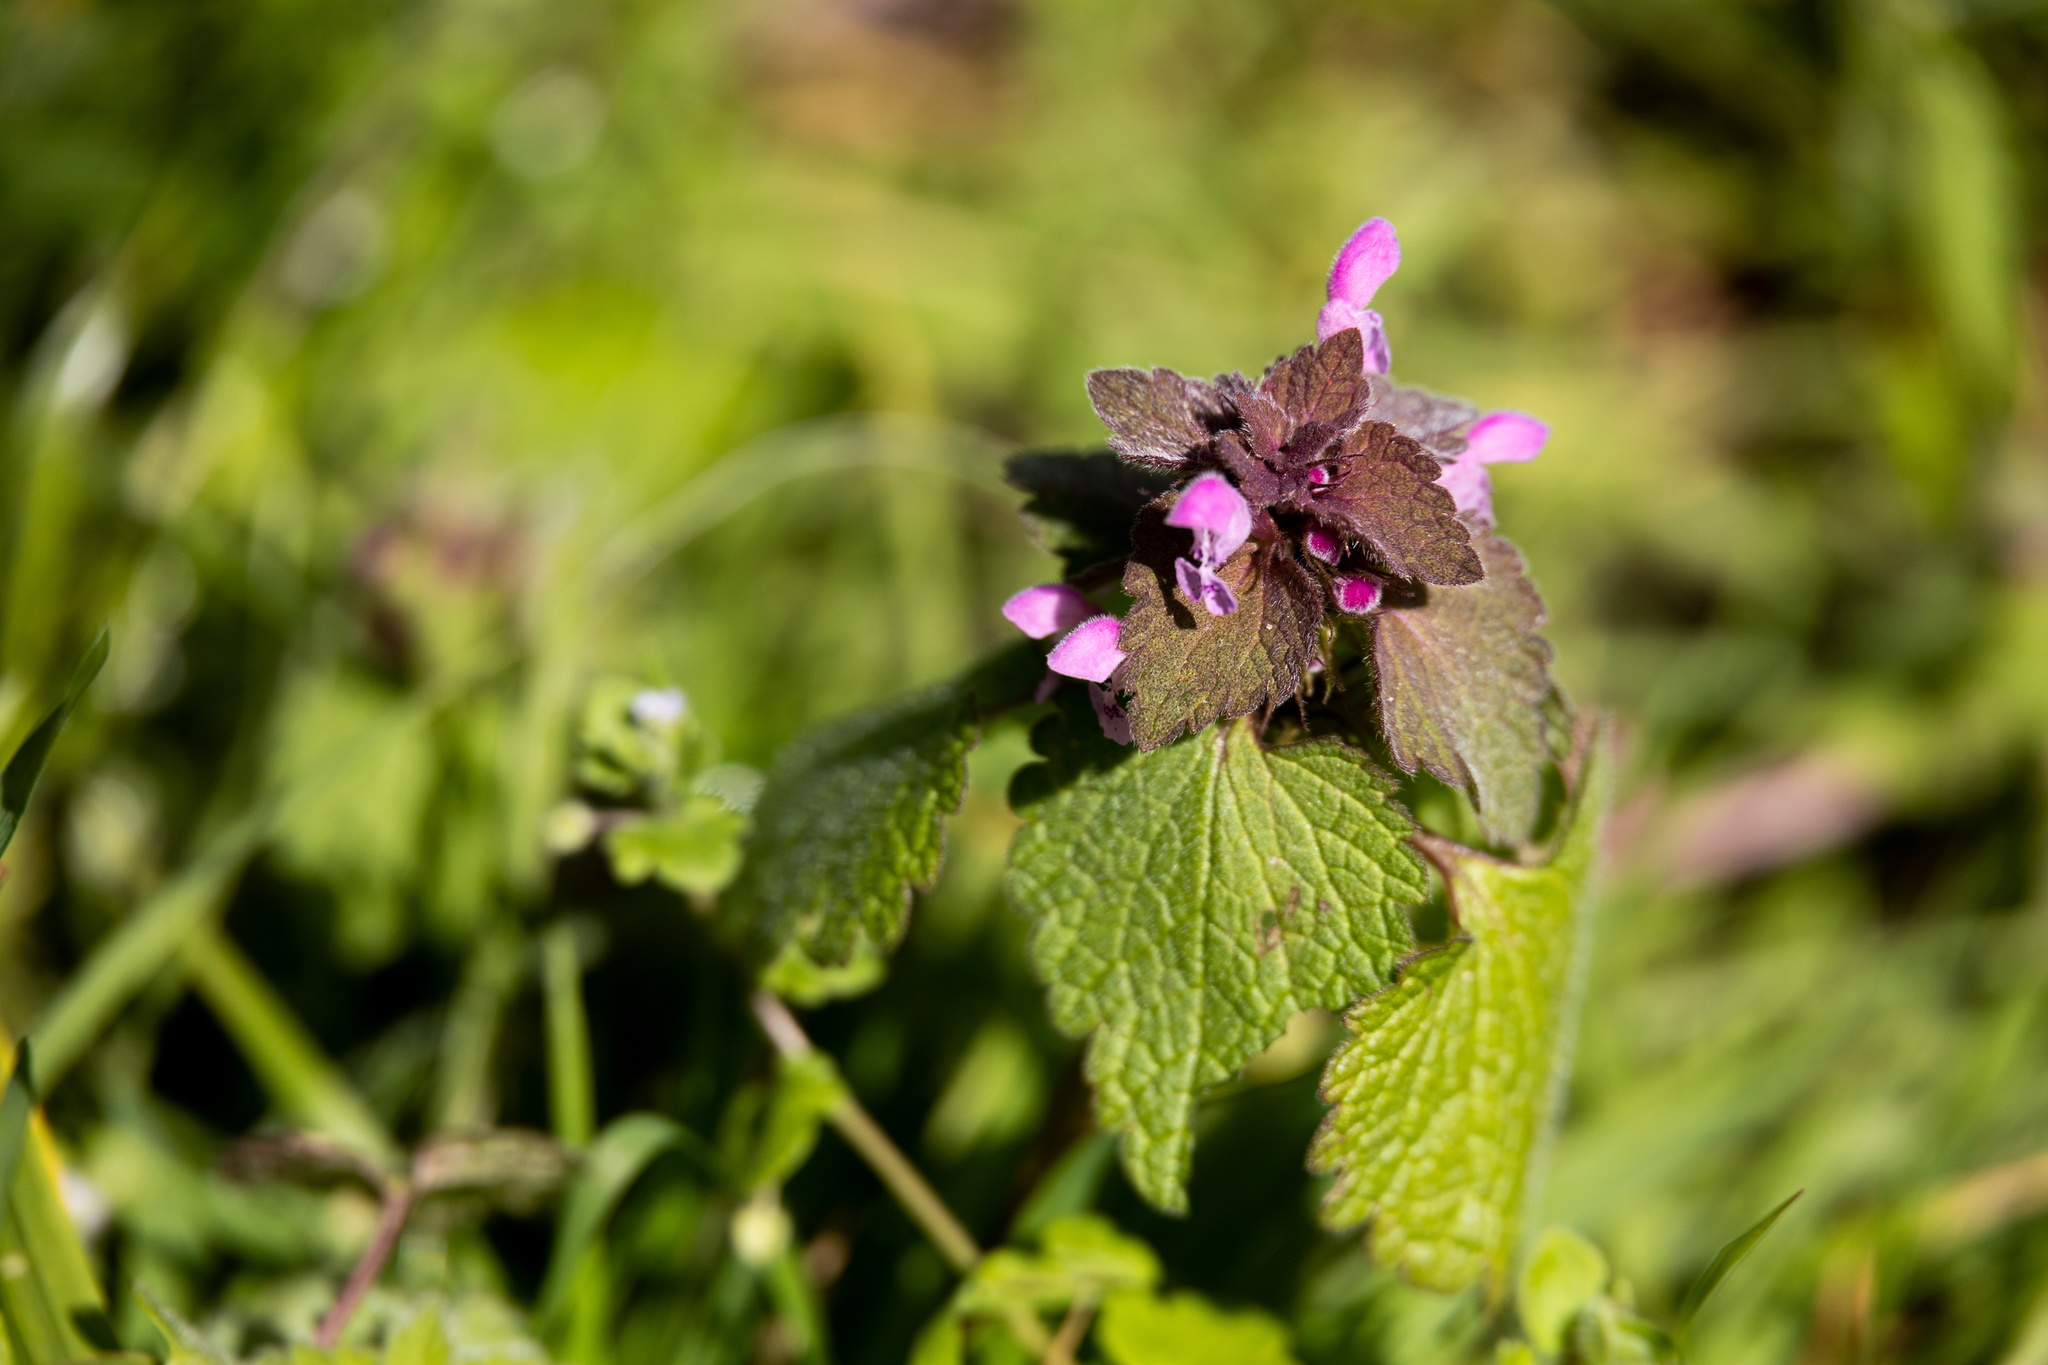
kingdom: Plantae
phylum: Tracheophyta
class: Magnoliopsida
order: Lamiales
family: Lamiaceae
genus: Lamium
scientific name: Lamium purpureum
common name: Red dead-nettle
